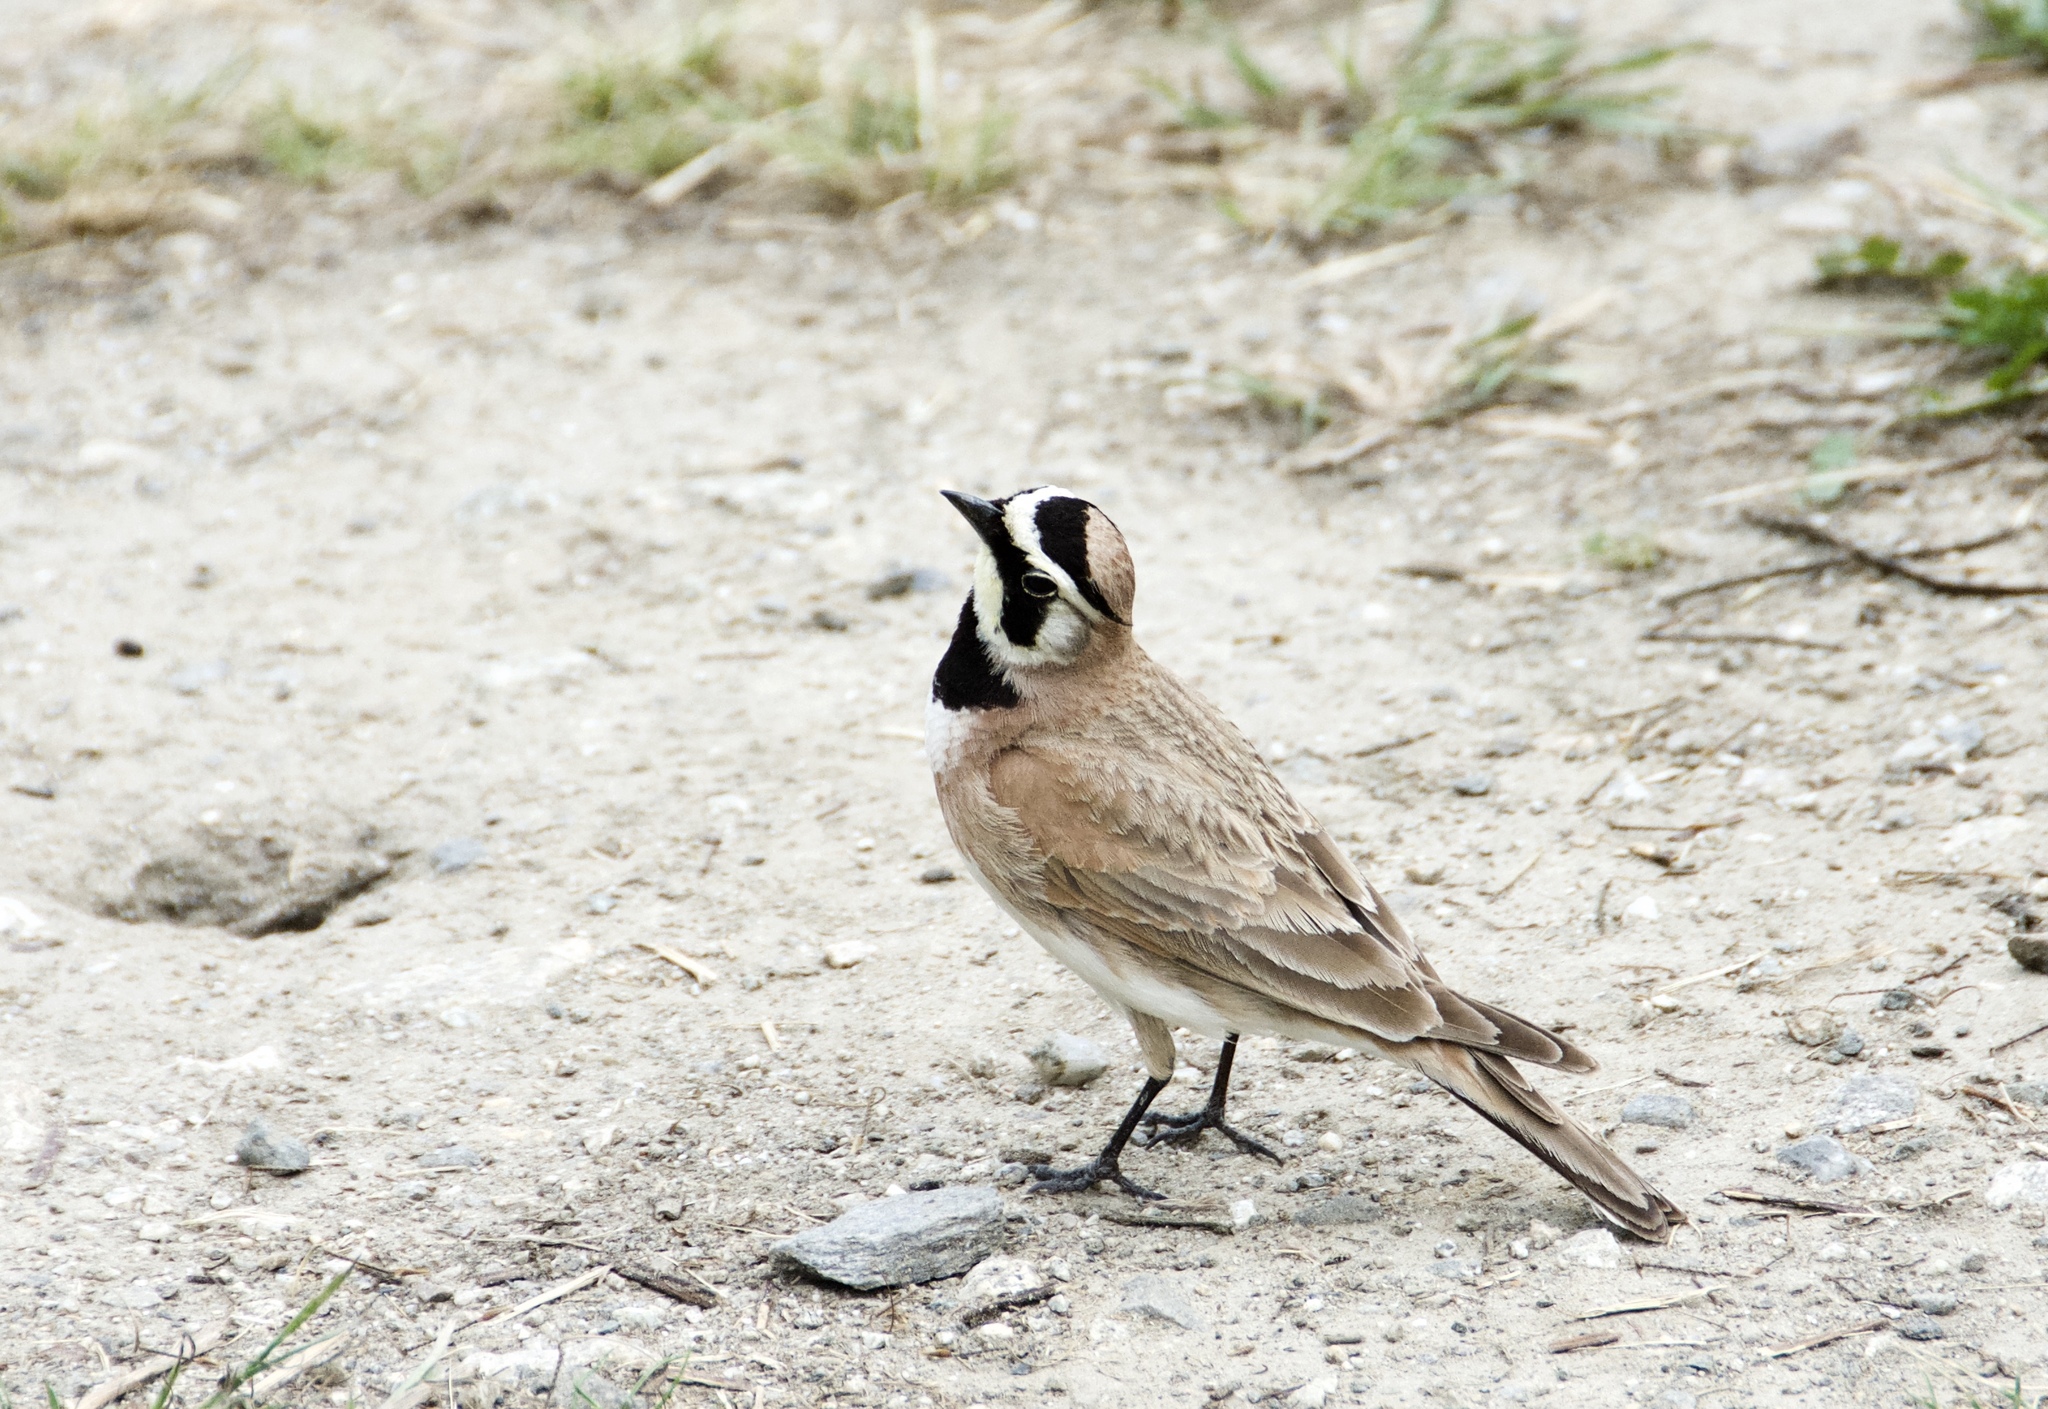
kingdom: Animalia
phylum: Chordata
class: Aves
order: Passeriformes
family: Alaudidae
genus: Eremophila
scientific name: Eremophila alpestris
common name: Horned lark
